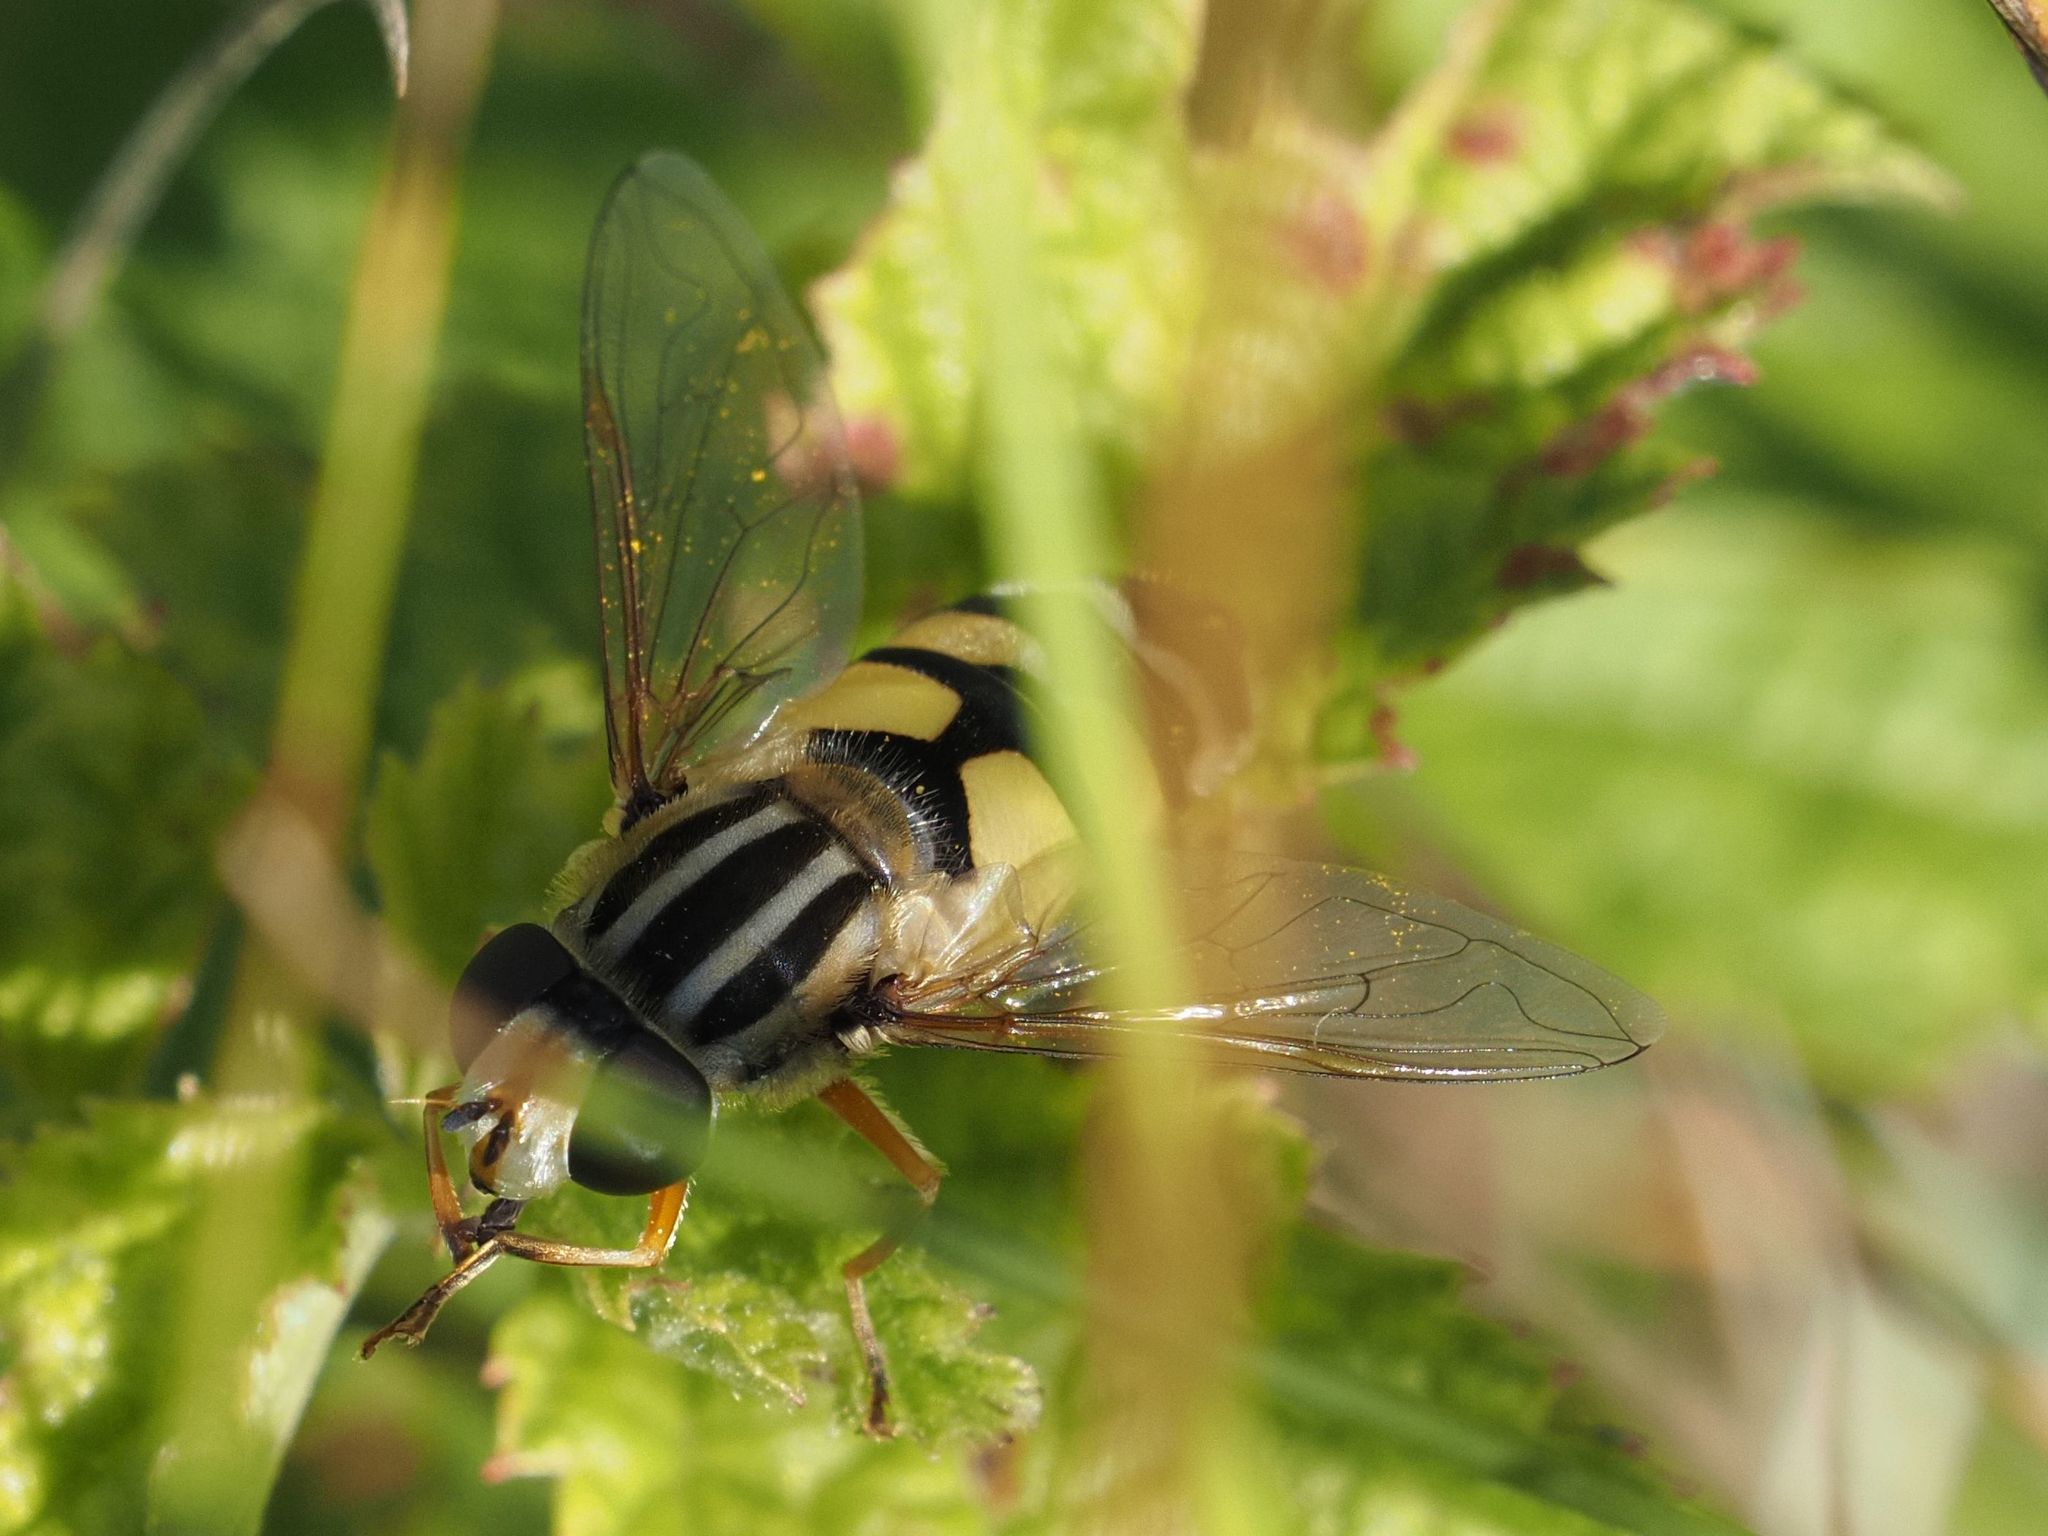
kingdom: Animalia
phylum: Arthropoda
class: Insecta
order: Diptera
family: Syrphidae
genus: Helophilus
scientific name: Helophilus trivittatus
